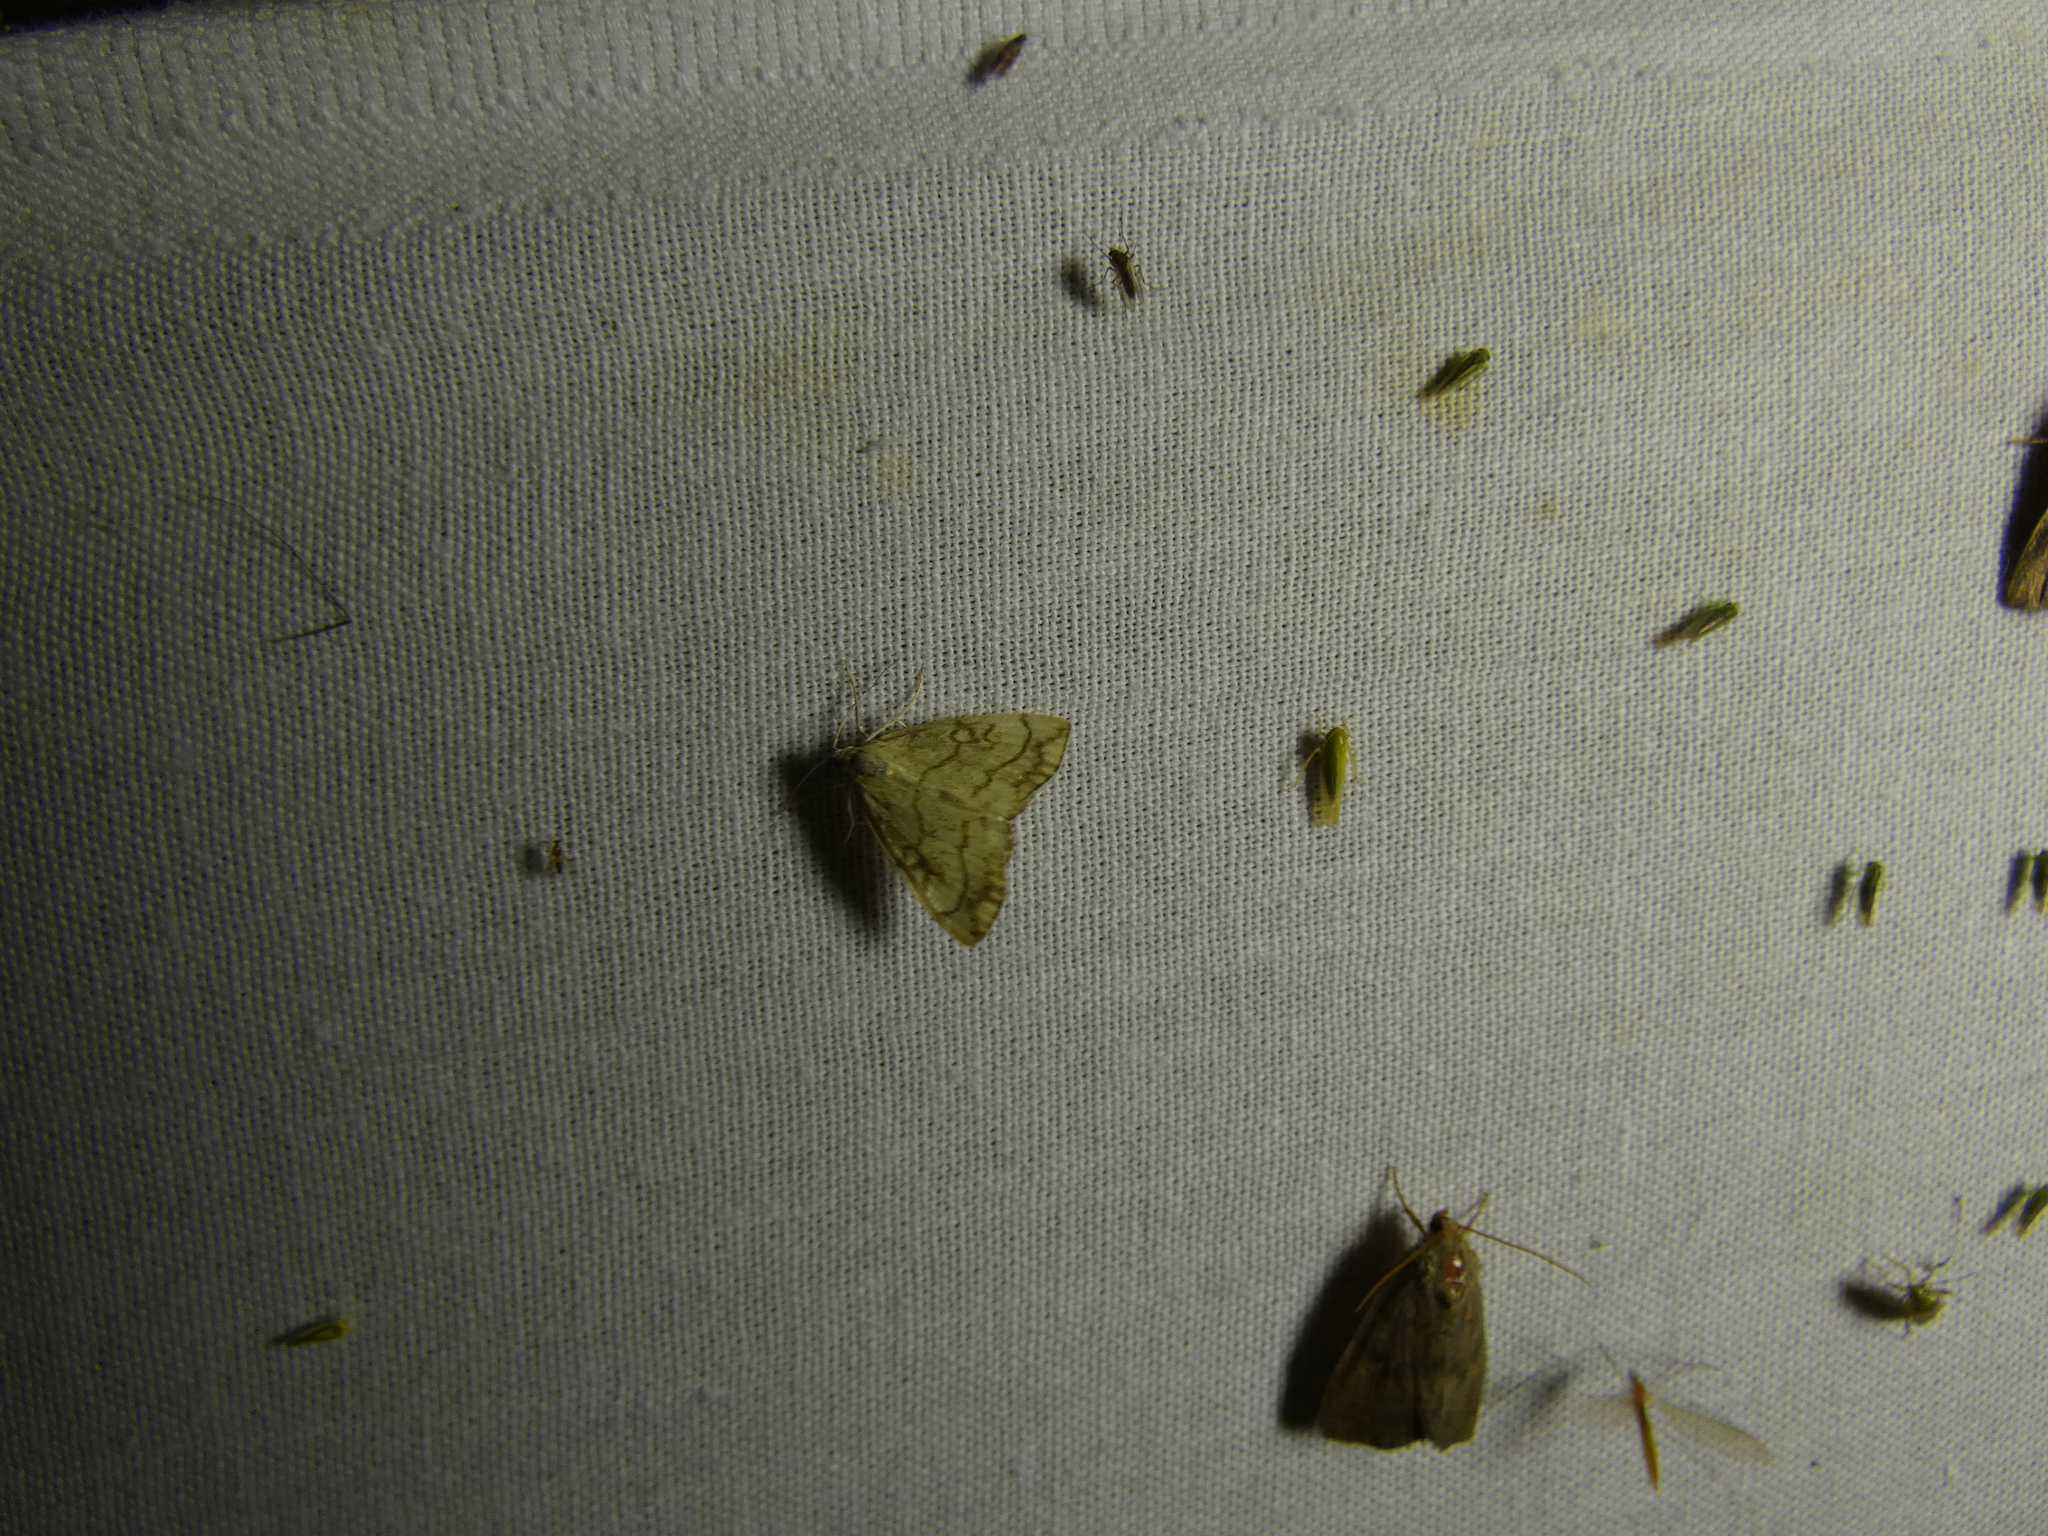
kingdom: Animalia
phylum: Arthropoda
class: Insecta
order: Lepidoptera
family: Crambidae
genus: Evergestis
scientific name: Evergestis pallidata
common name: Chequered pearl
